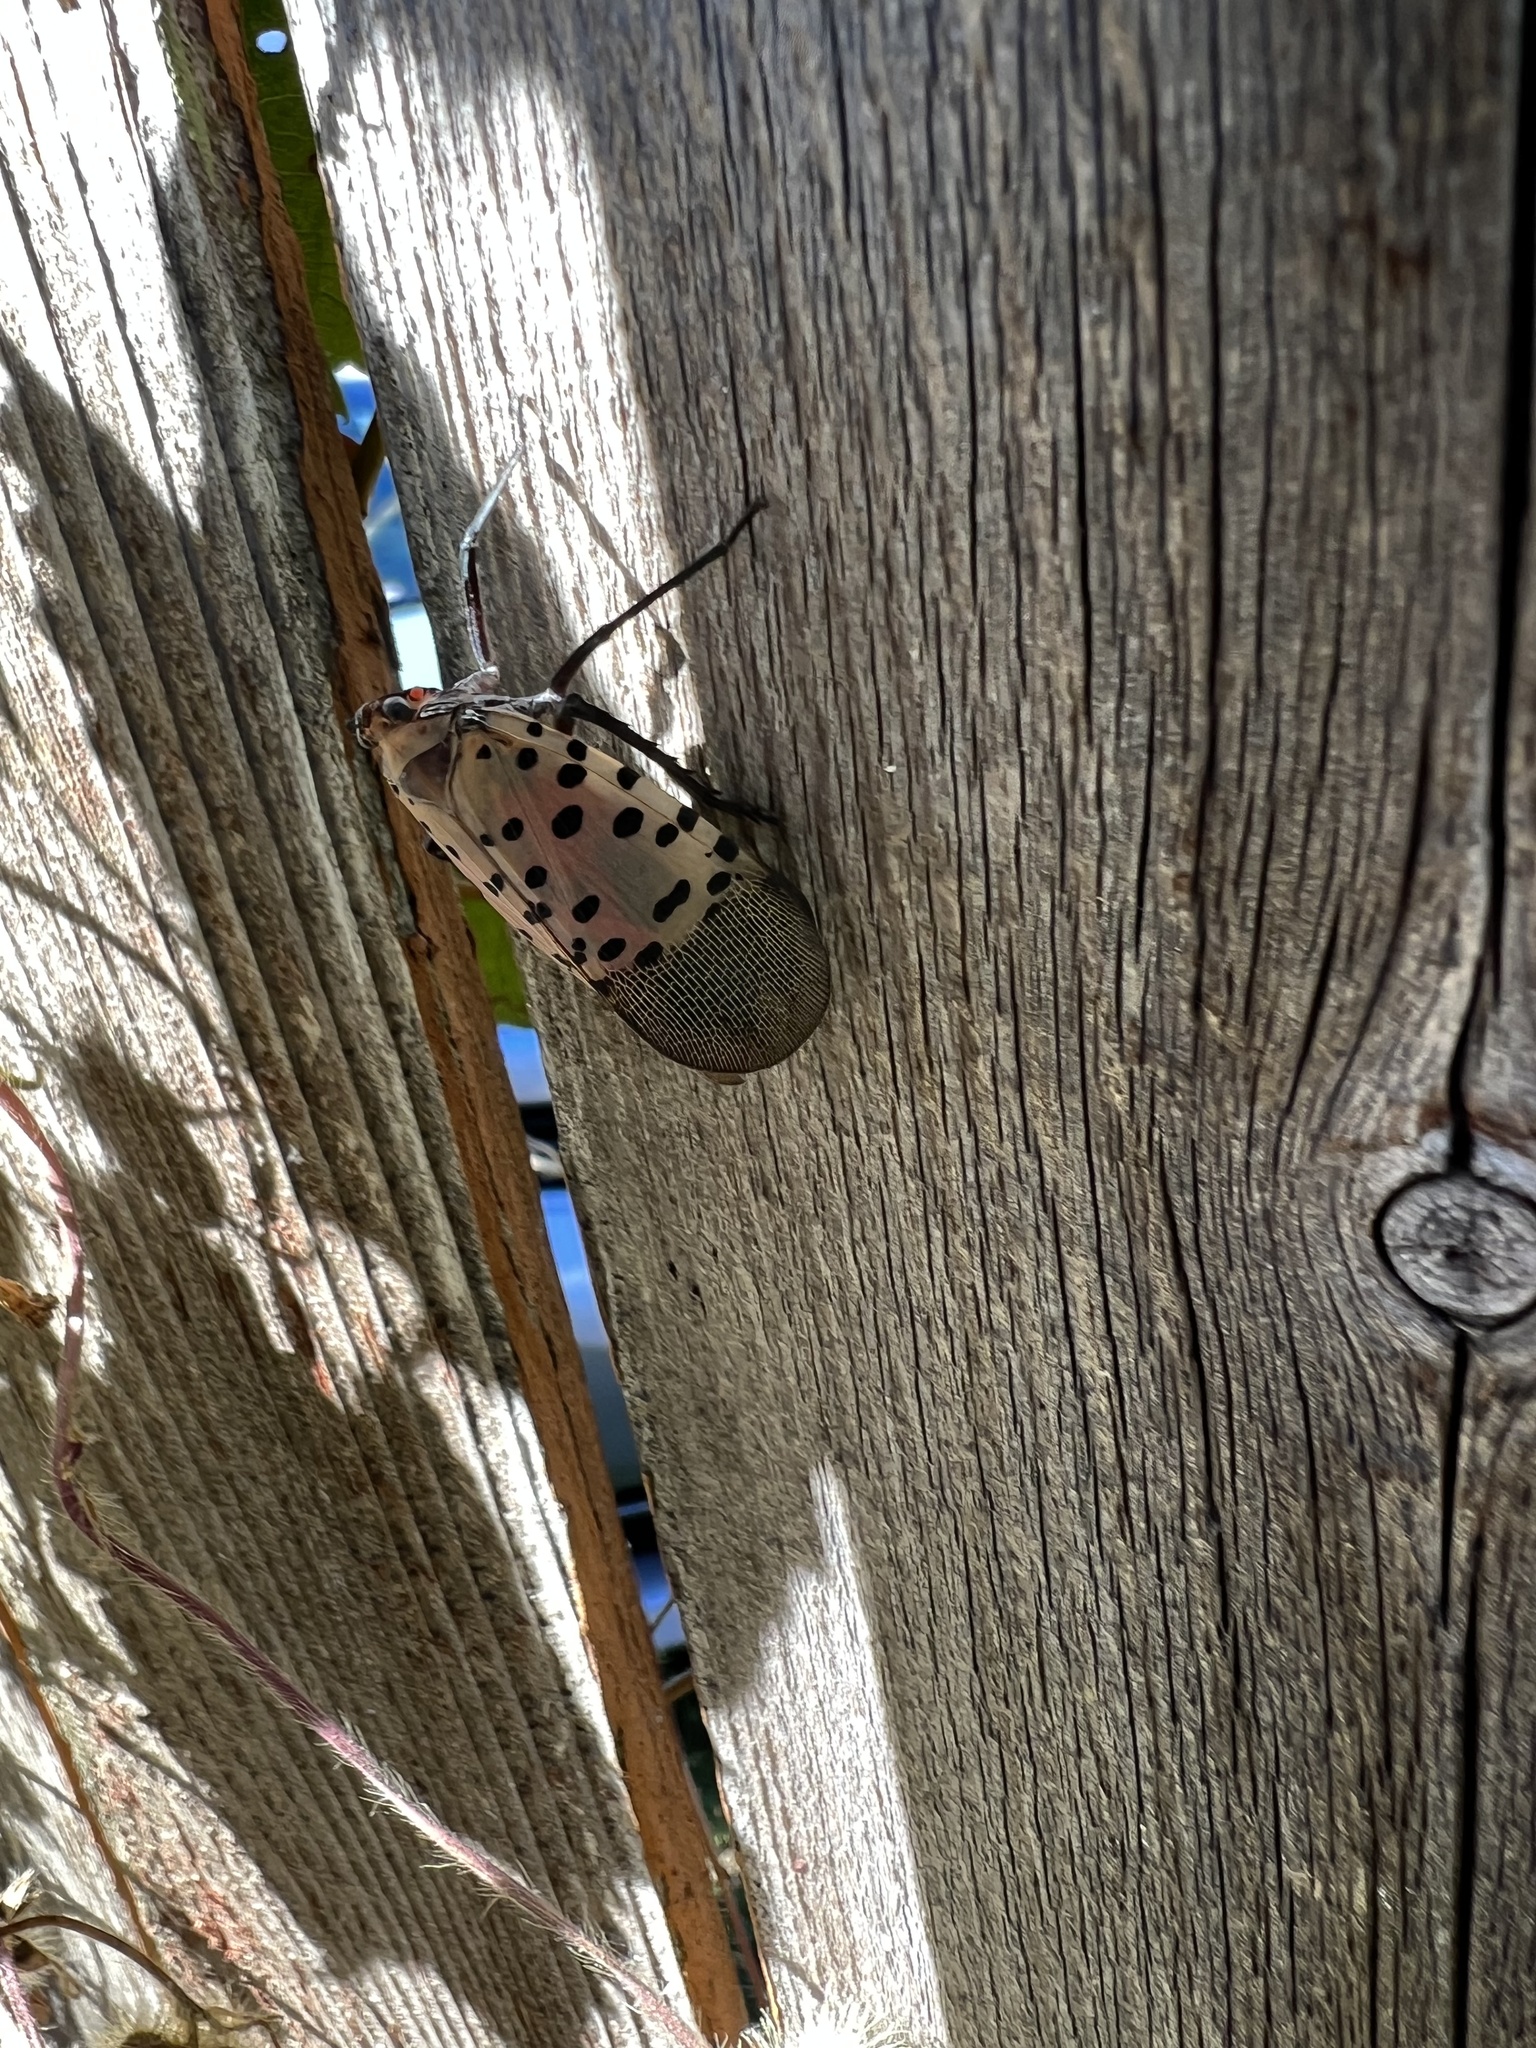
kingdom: Animalia
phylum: Arthropoda
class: Insecta
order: Hemiptera
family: Fulgoridae
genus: Lycorma
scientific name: Lycorma delicatula
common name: Spotted lanternfly
